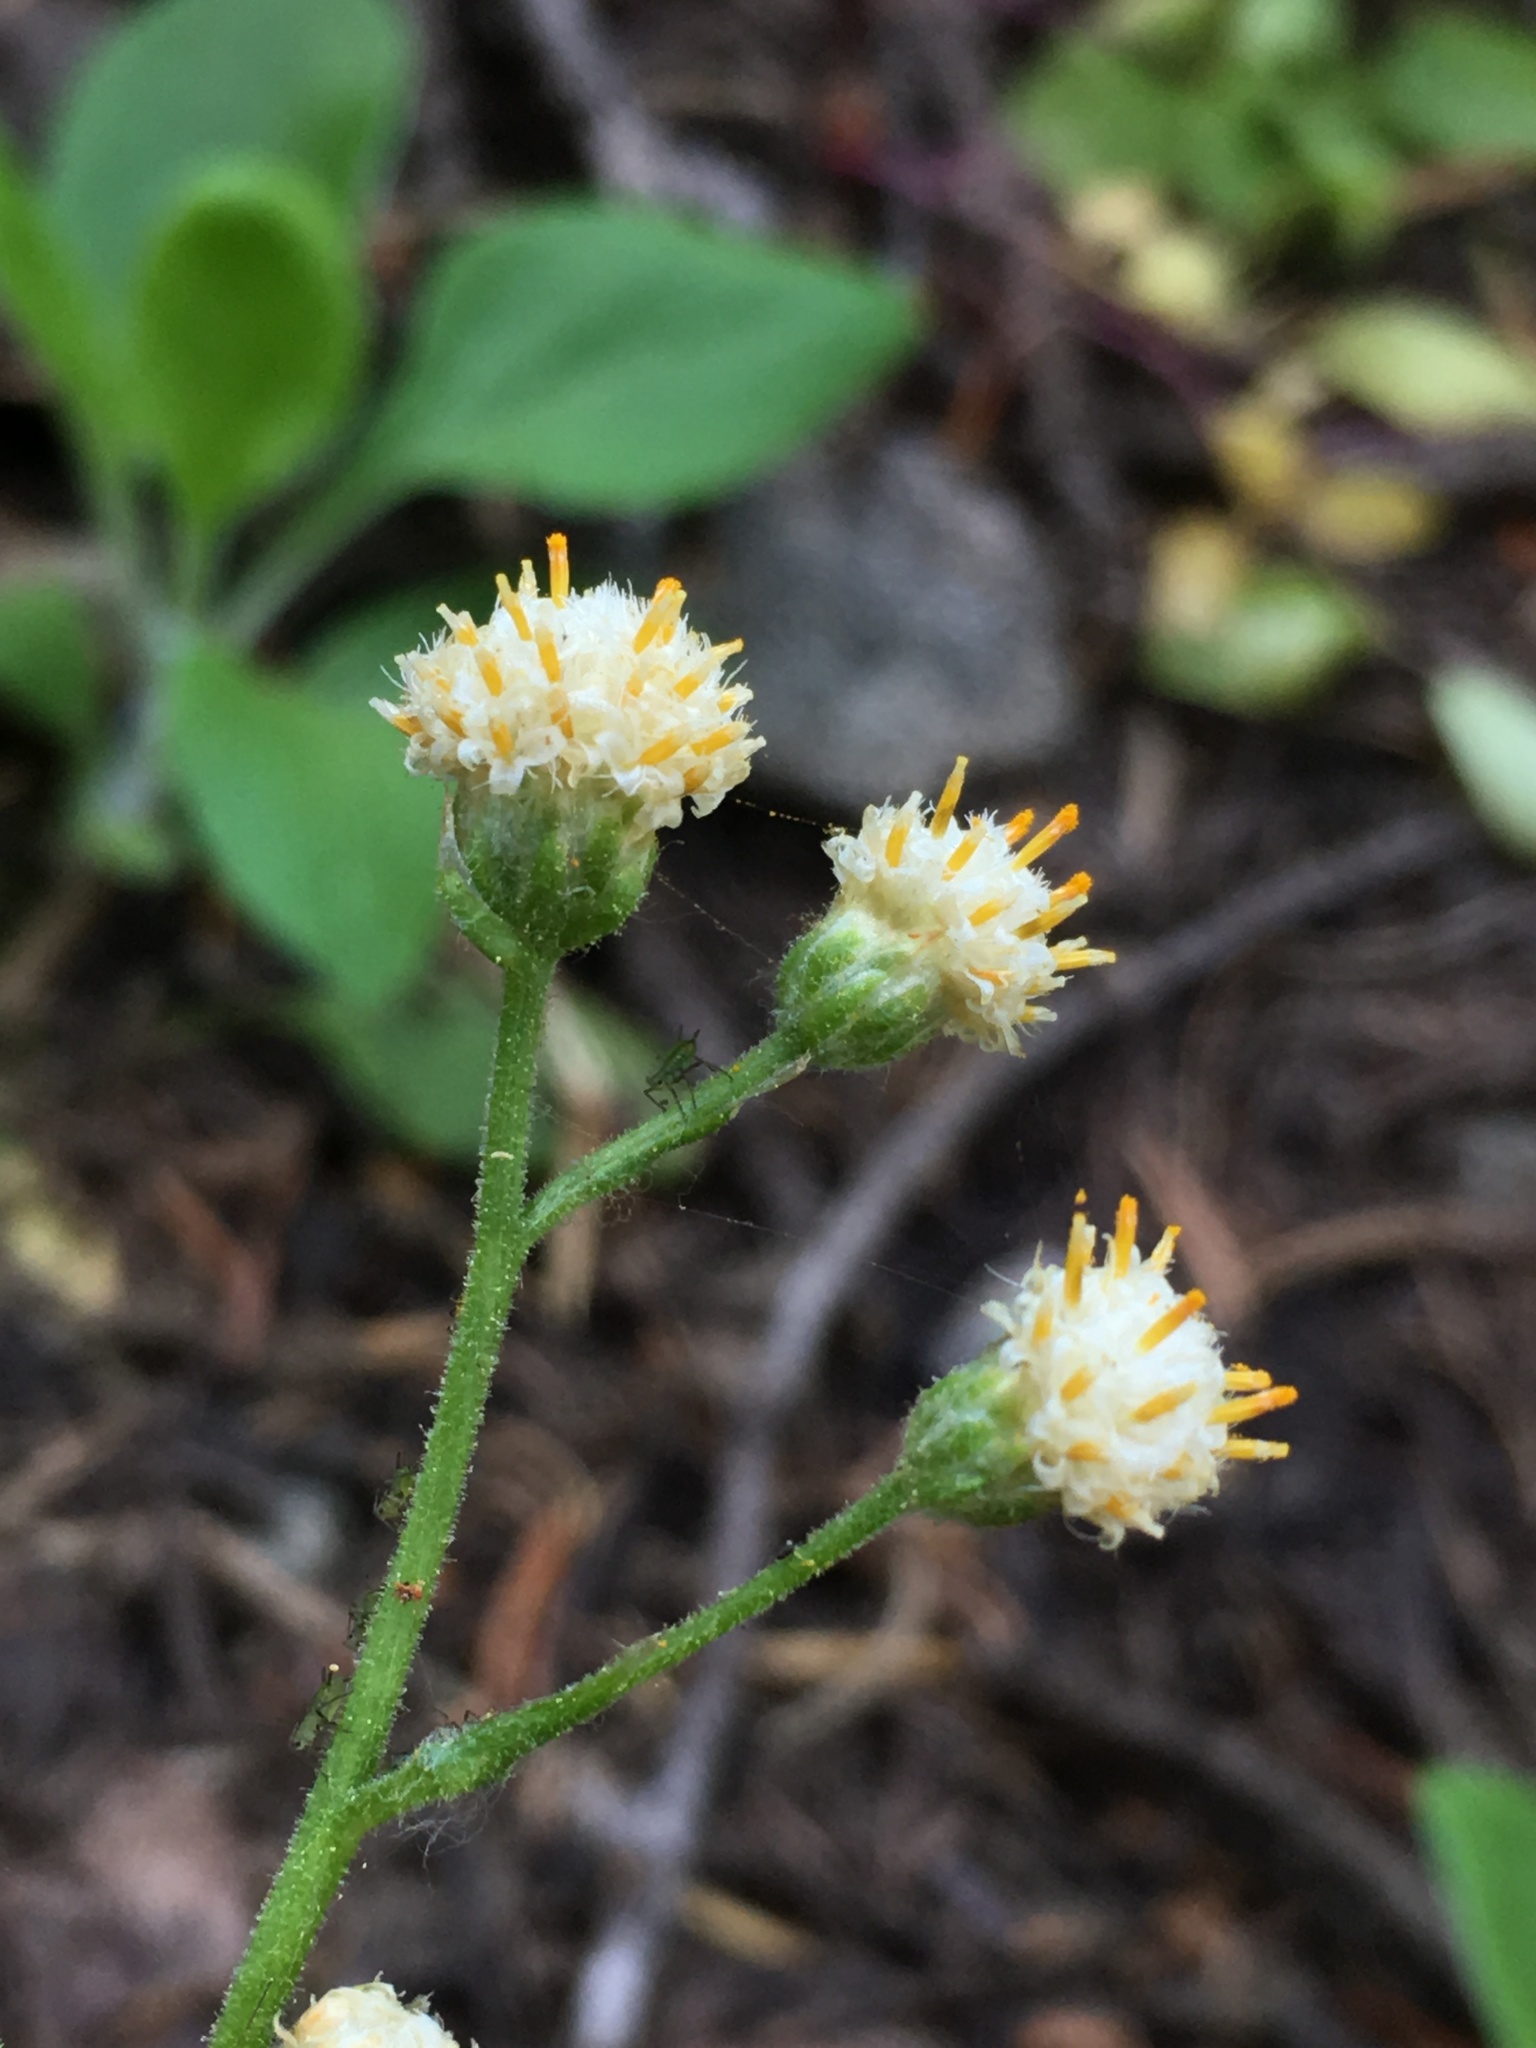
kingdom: Plantae
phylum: Tracheophyta
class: Magnoliopsida
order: Asterales
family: Asteraceae
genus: Antennaria
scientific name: Antennaria racemosa
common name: Racemose pussytoes
